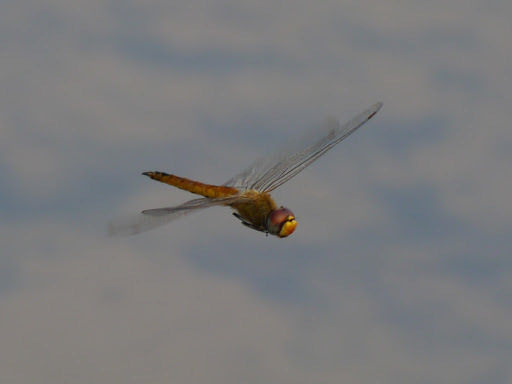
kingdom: Animalia
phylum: Arthropoda
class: Insecta
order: Odonata
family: Libellulidae
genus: Pantala
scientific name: Pantala flavescens
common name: Wandering glider
